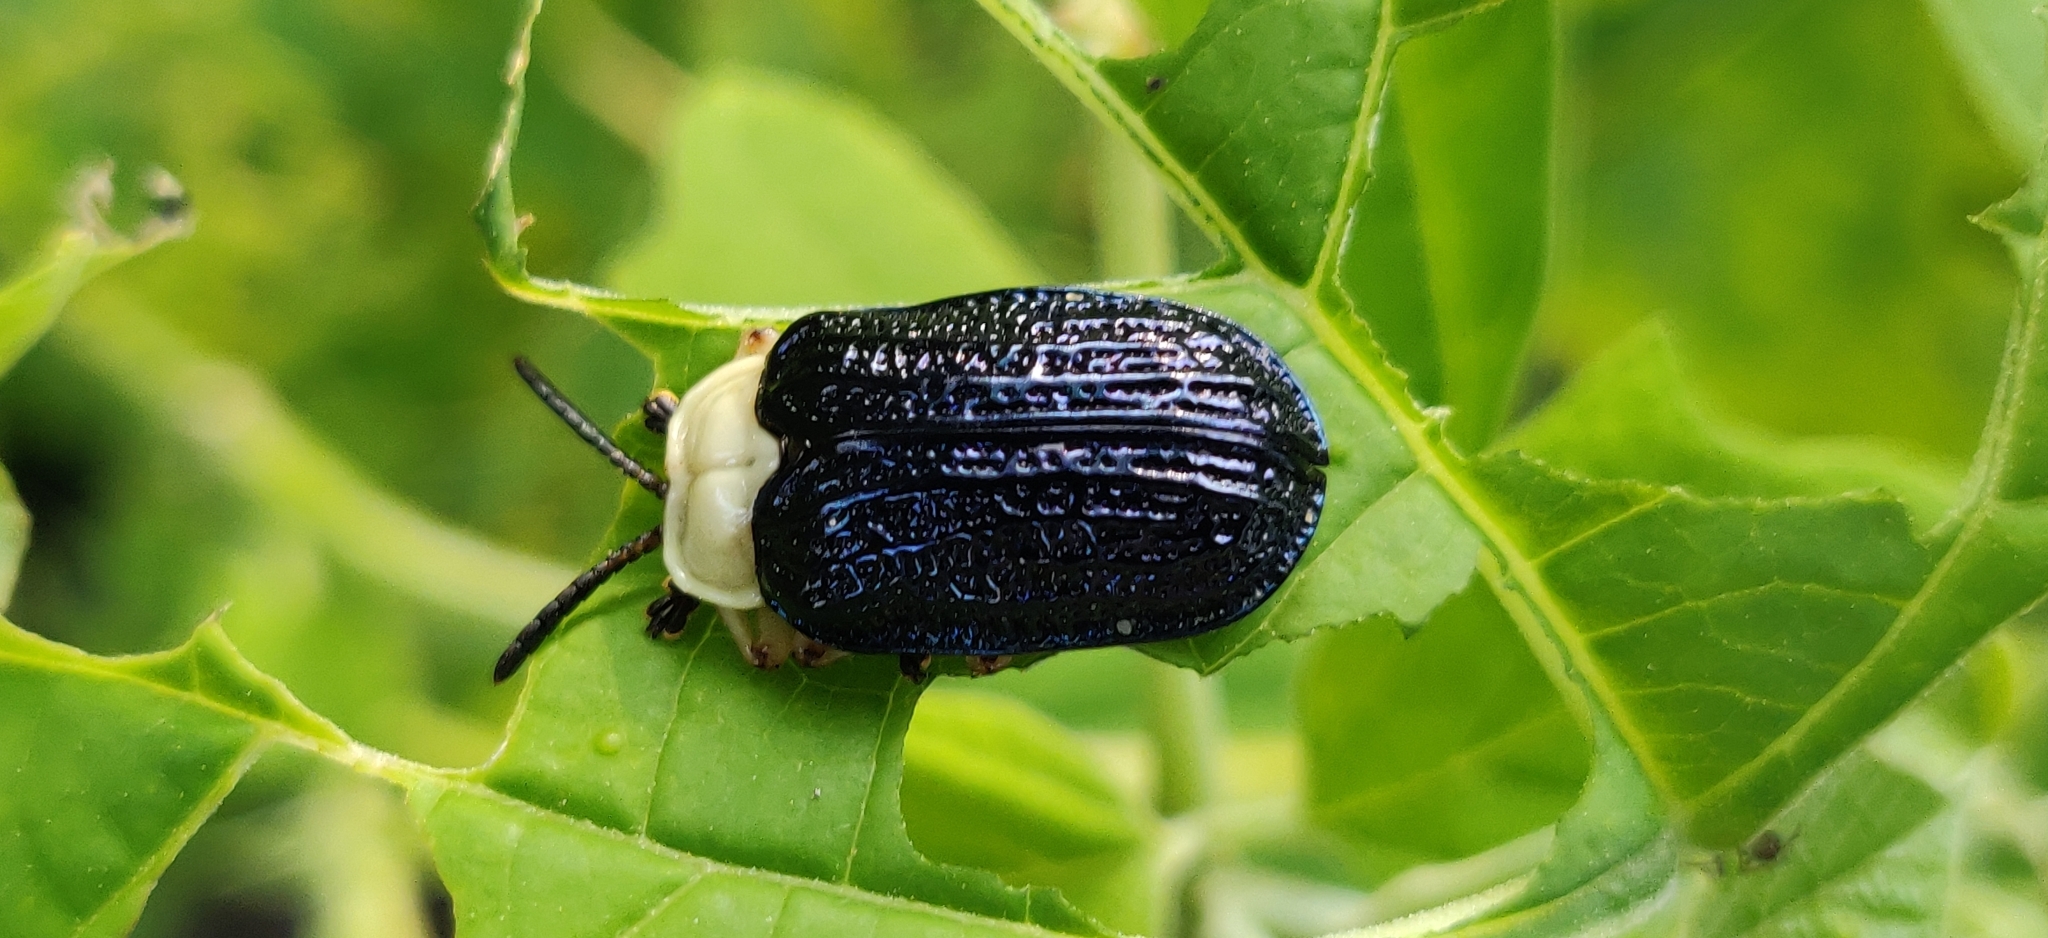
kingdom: Animalia
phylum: Arthropoda
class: Insecta
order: Coleoptera
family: Chrysomelidae
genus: Craspedonta
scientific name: Craspedonta leayana
